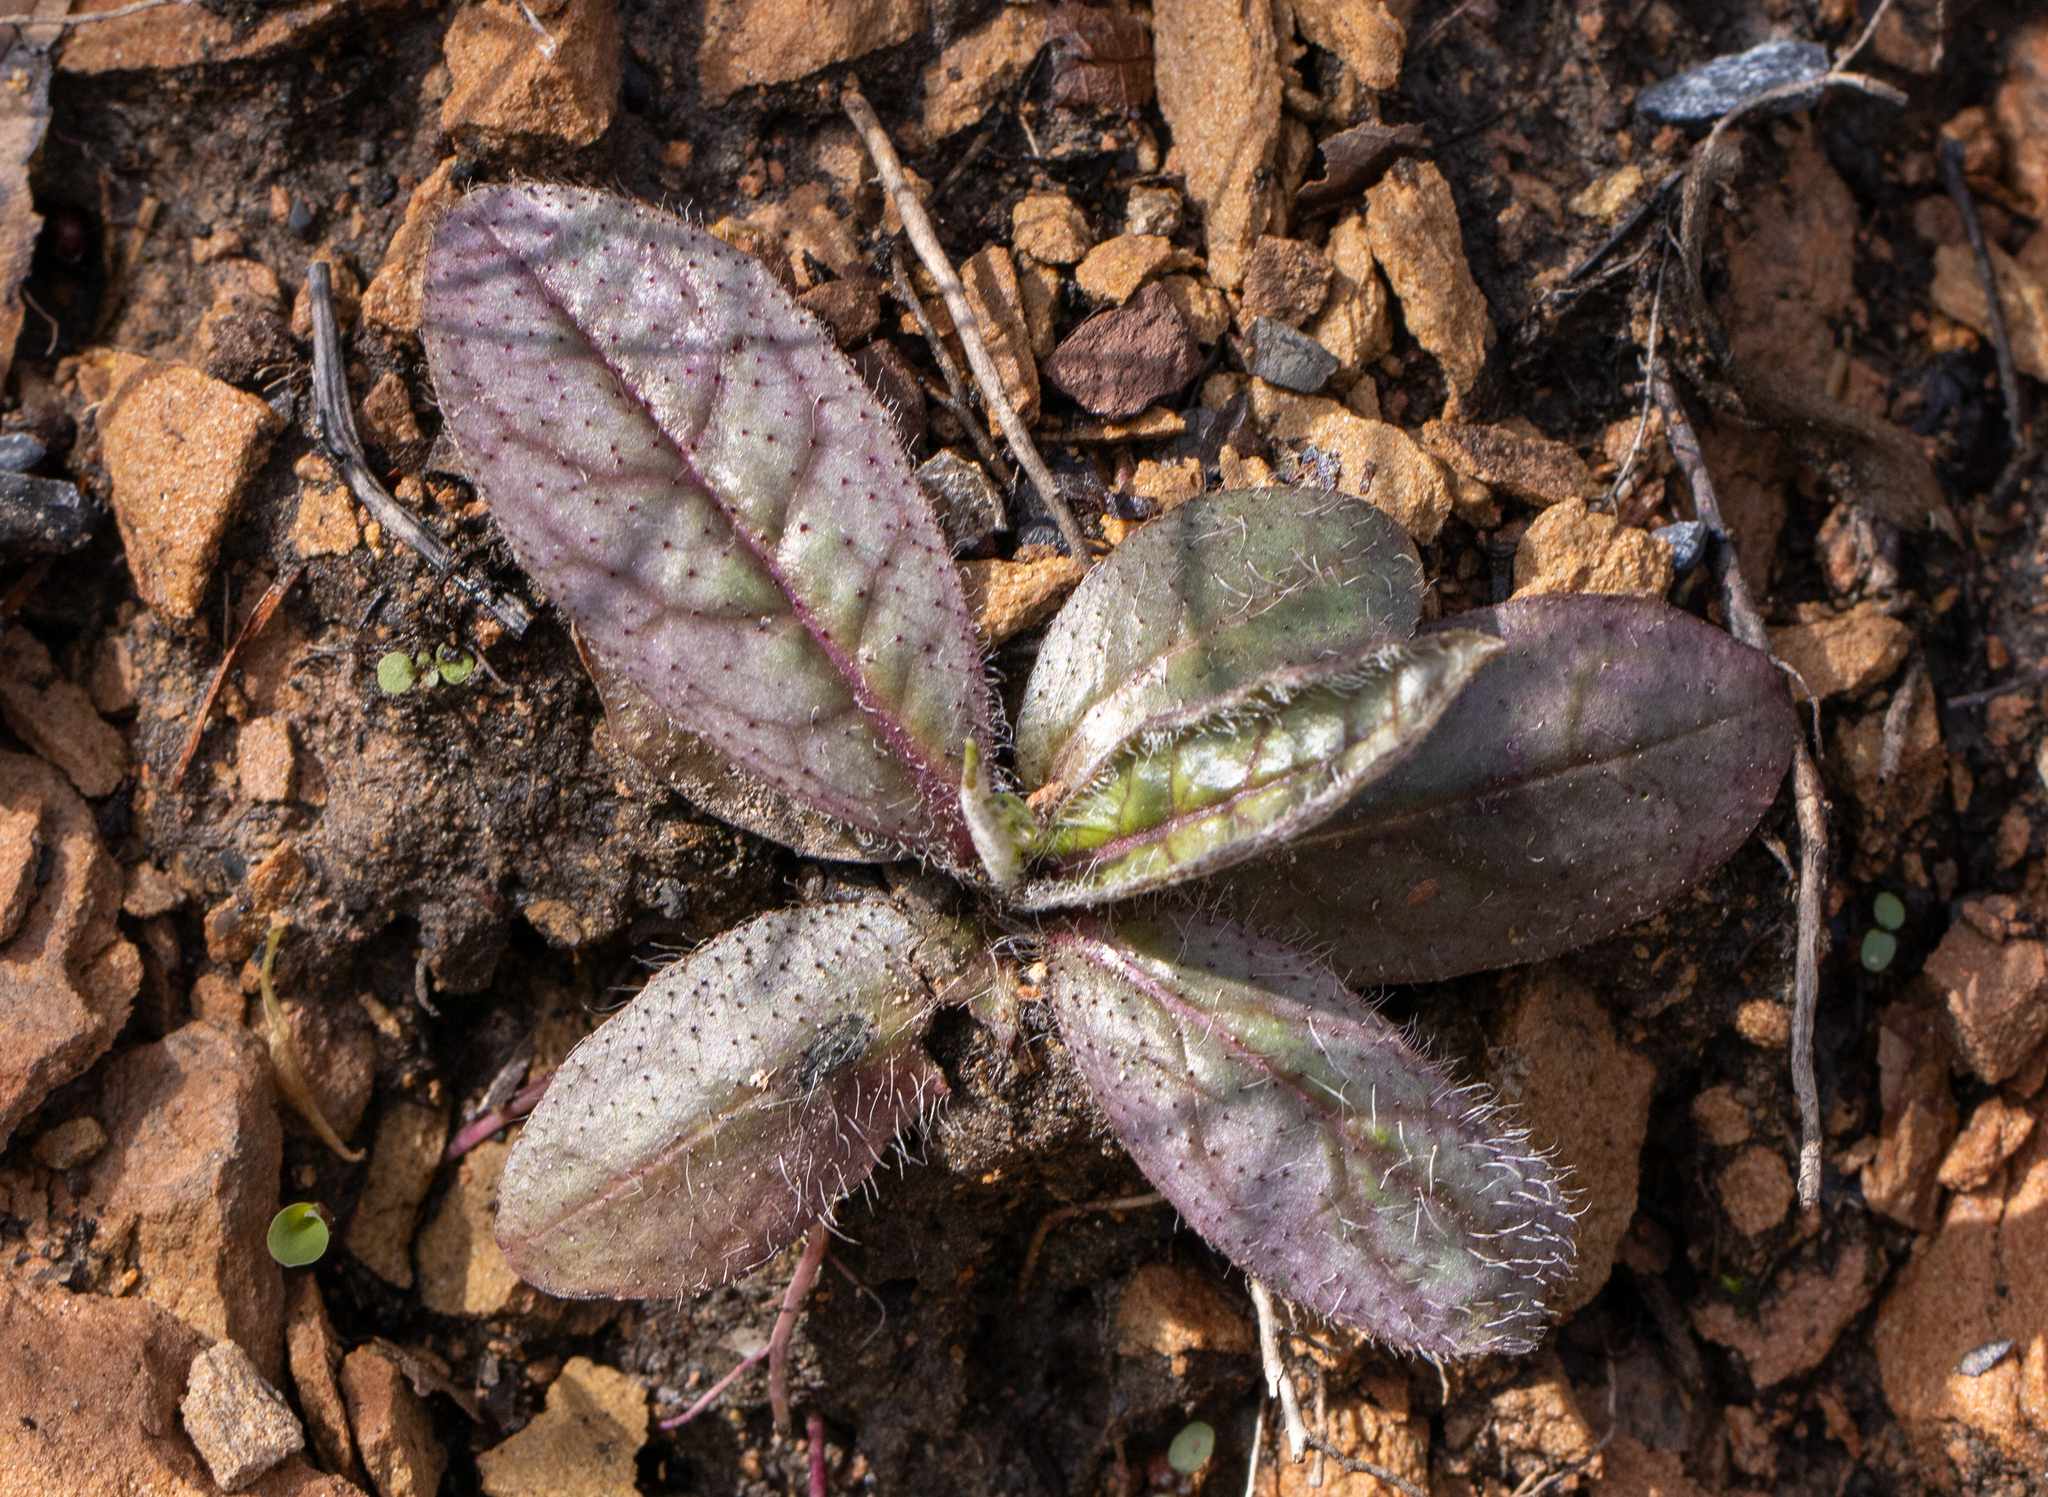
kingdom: Plantae
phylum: Tracheophyta
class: Magnoliopsida
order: Asterales
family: Asteraceae
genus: Hieracium
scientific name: Hieracium venosum
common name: Rattlesnake hawkweed
